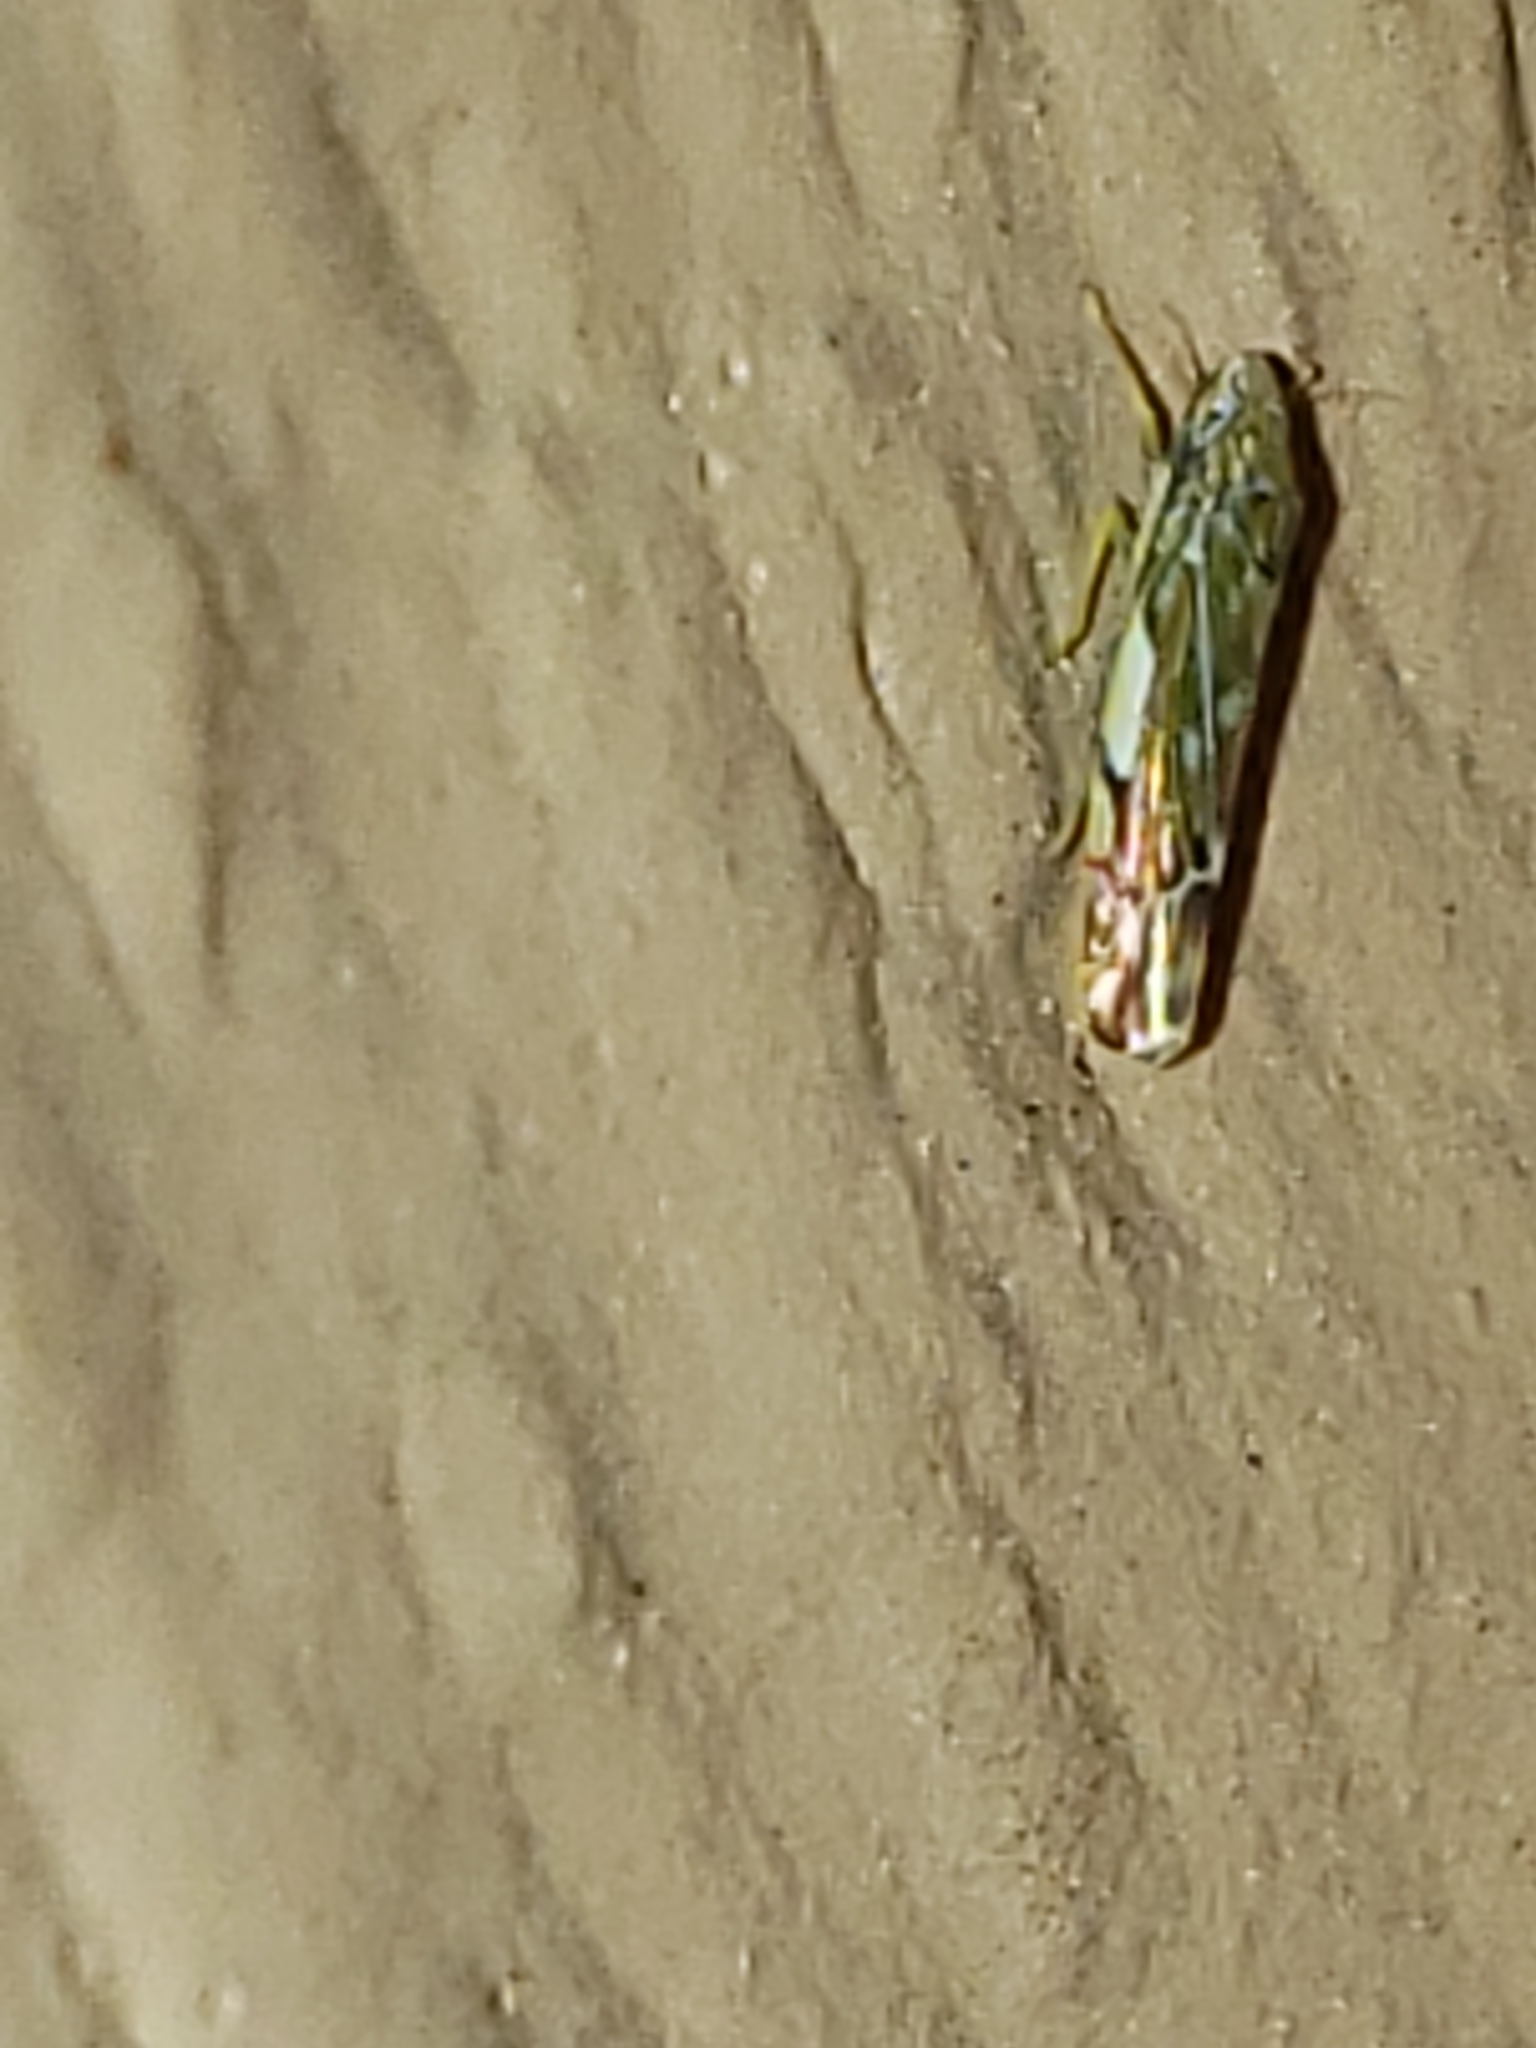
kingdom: Animalia
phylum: Arthropoda
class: Insecta
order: Hemiptera
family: Cicadellidae
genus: Erasmoneura
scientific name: Erasmoneura vulnerata
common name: The wounded leafhopper
